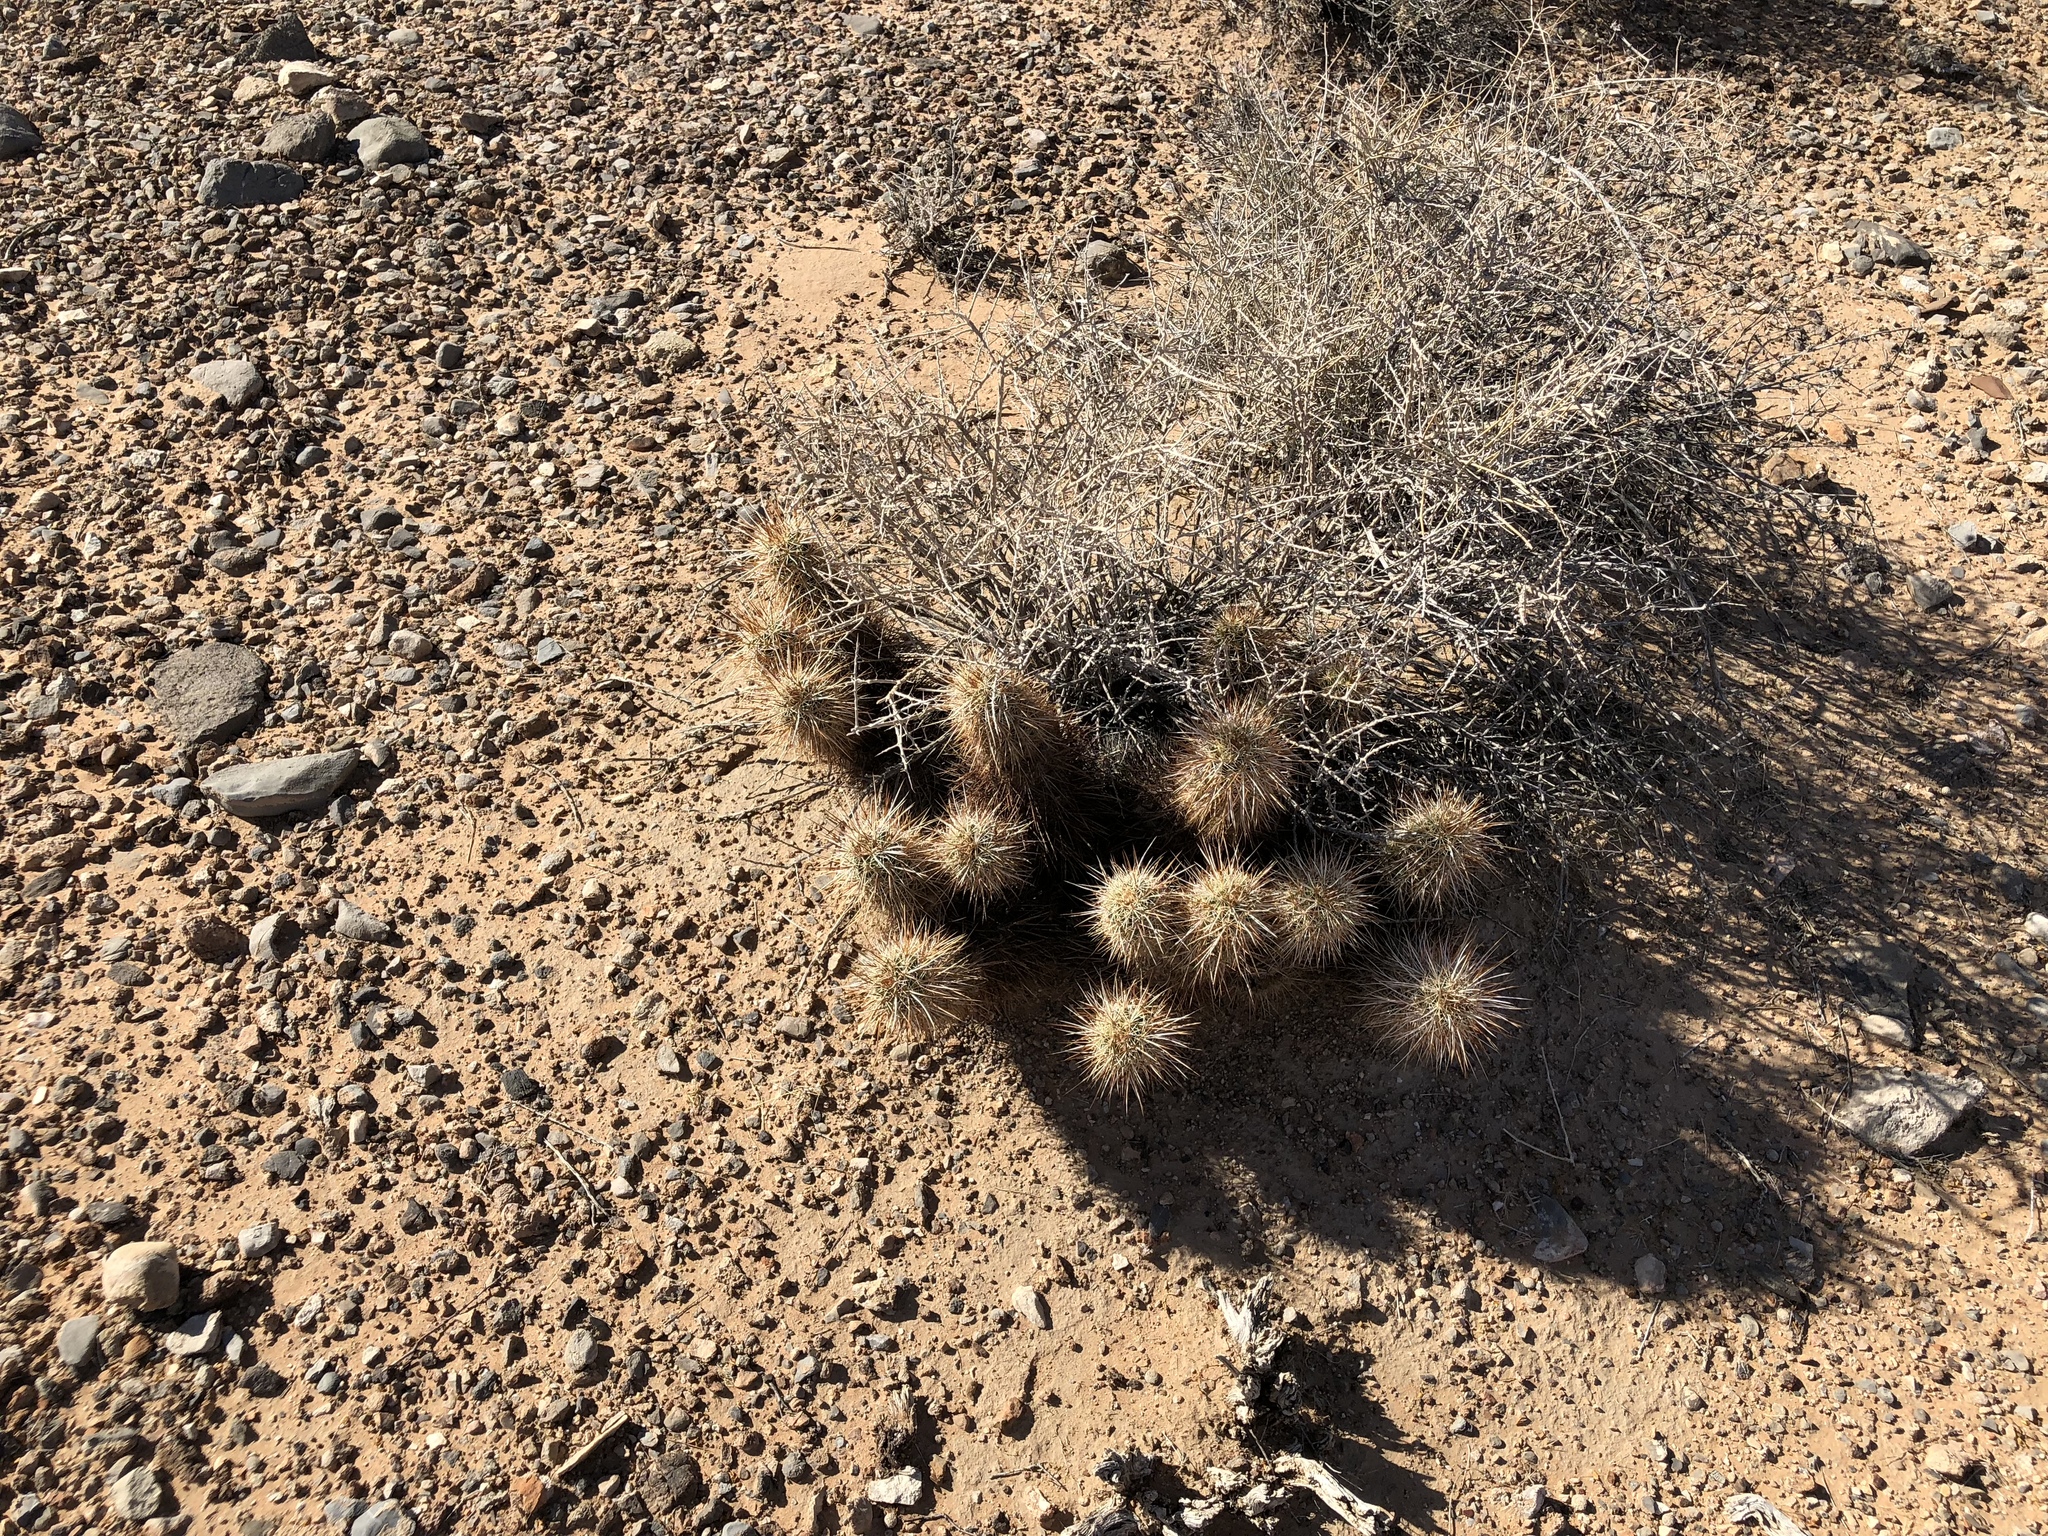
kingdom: Plantae
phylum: Tracheophyta
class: Magnoliopsida
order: Caryophyllales
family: Cactaceae
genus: Echinocereus
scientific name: Echinocereus engelmannii
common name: Engelmann's hedgehog cactus
